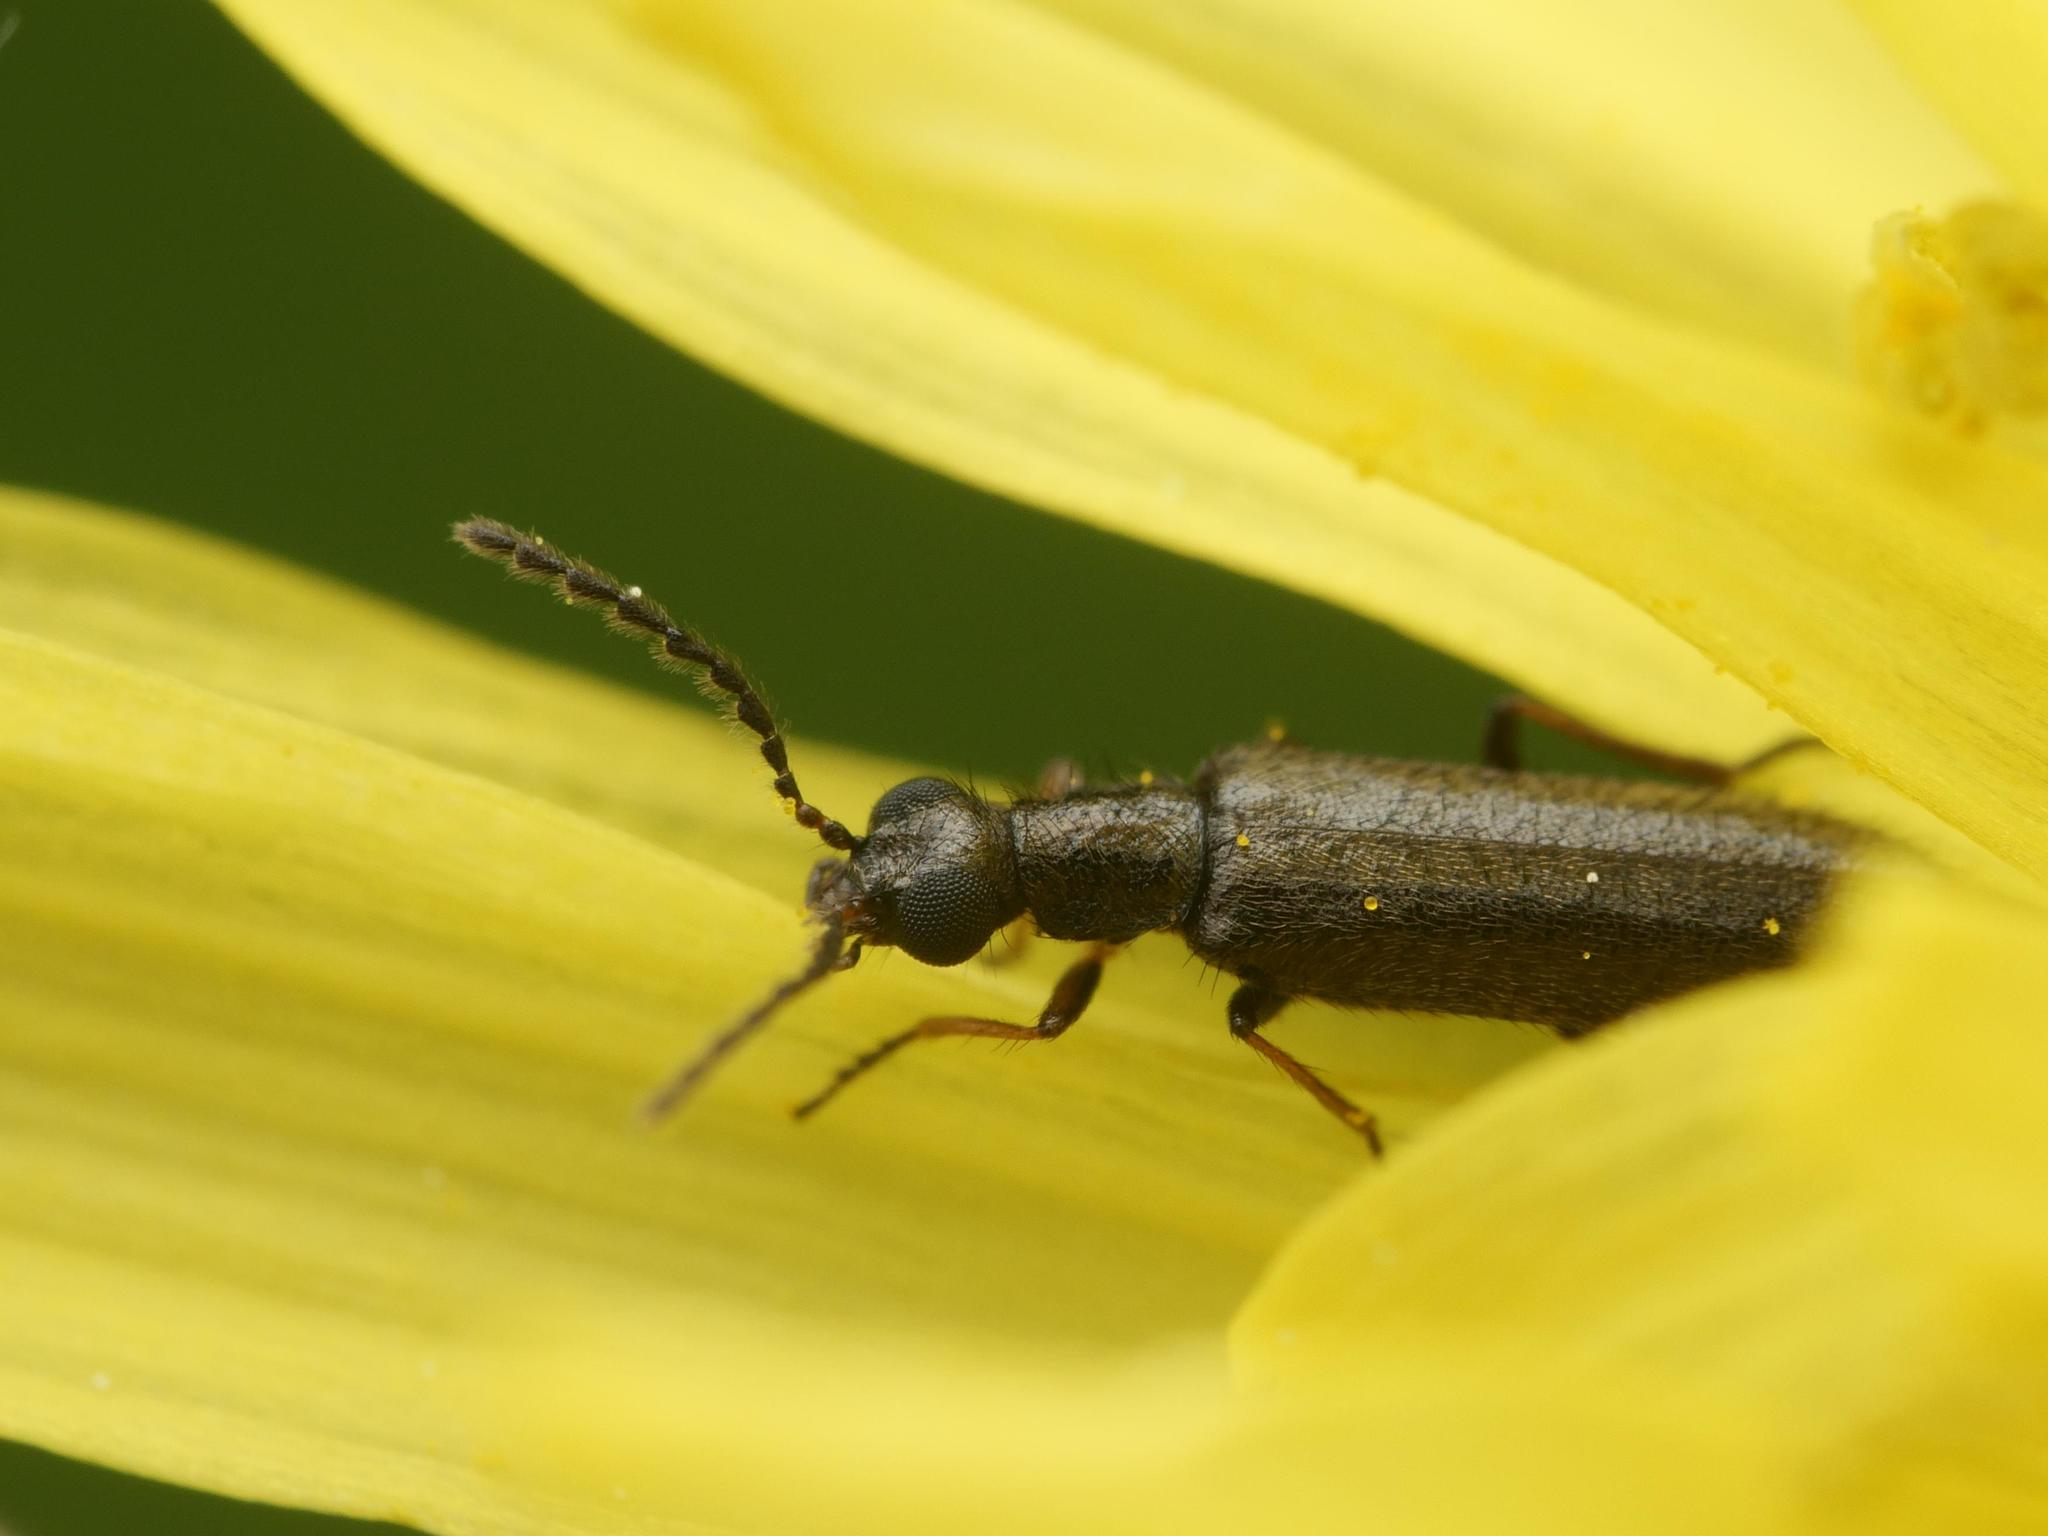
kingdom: Animalia
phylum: Arthropoda
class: Insecta
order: Coleoptera
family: Melyridae
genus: Dasytes
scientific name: Dasytes plumbeus
